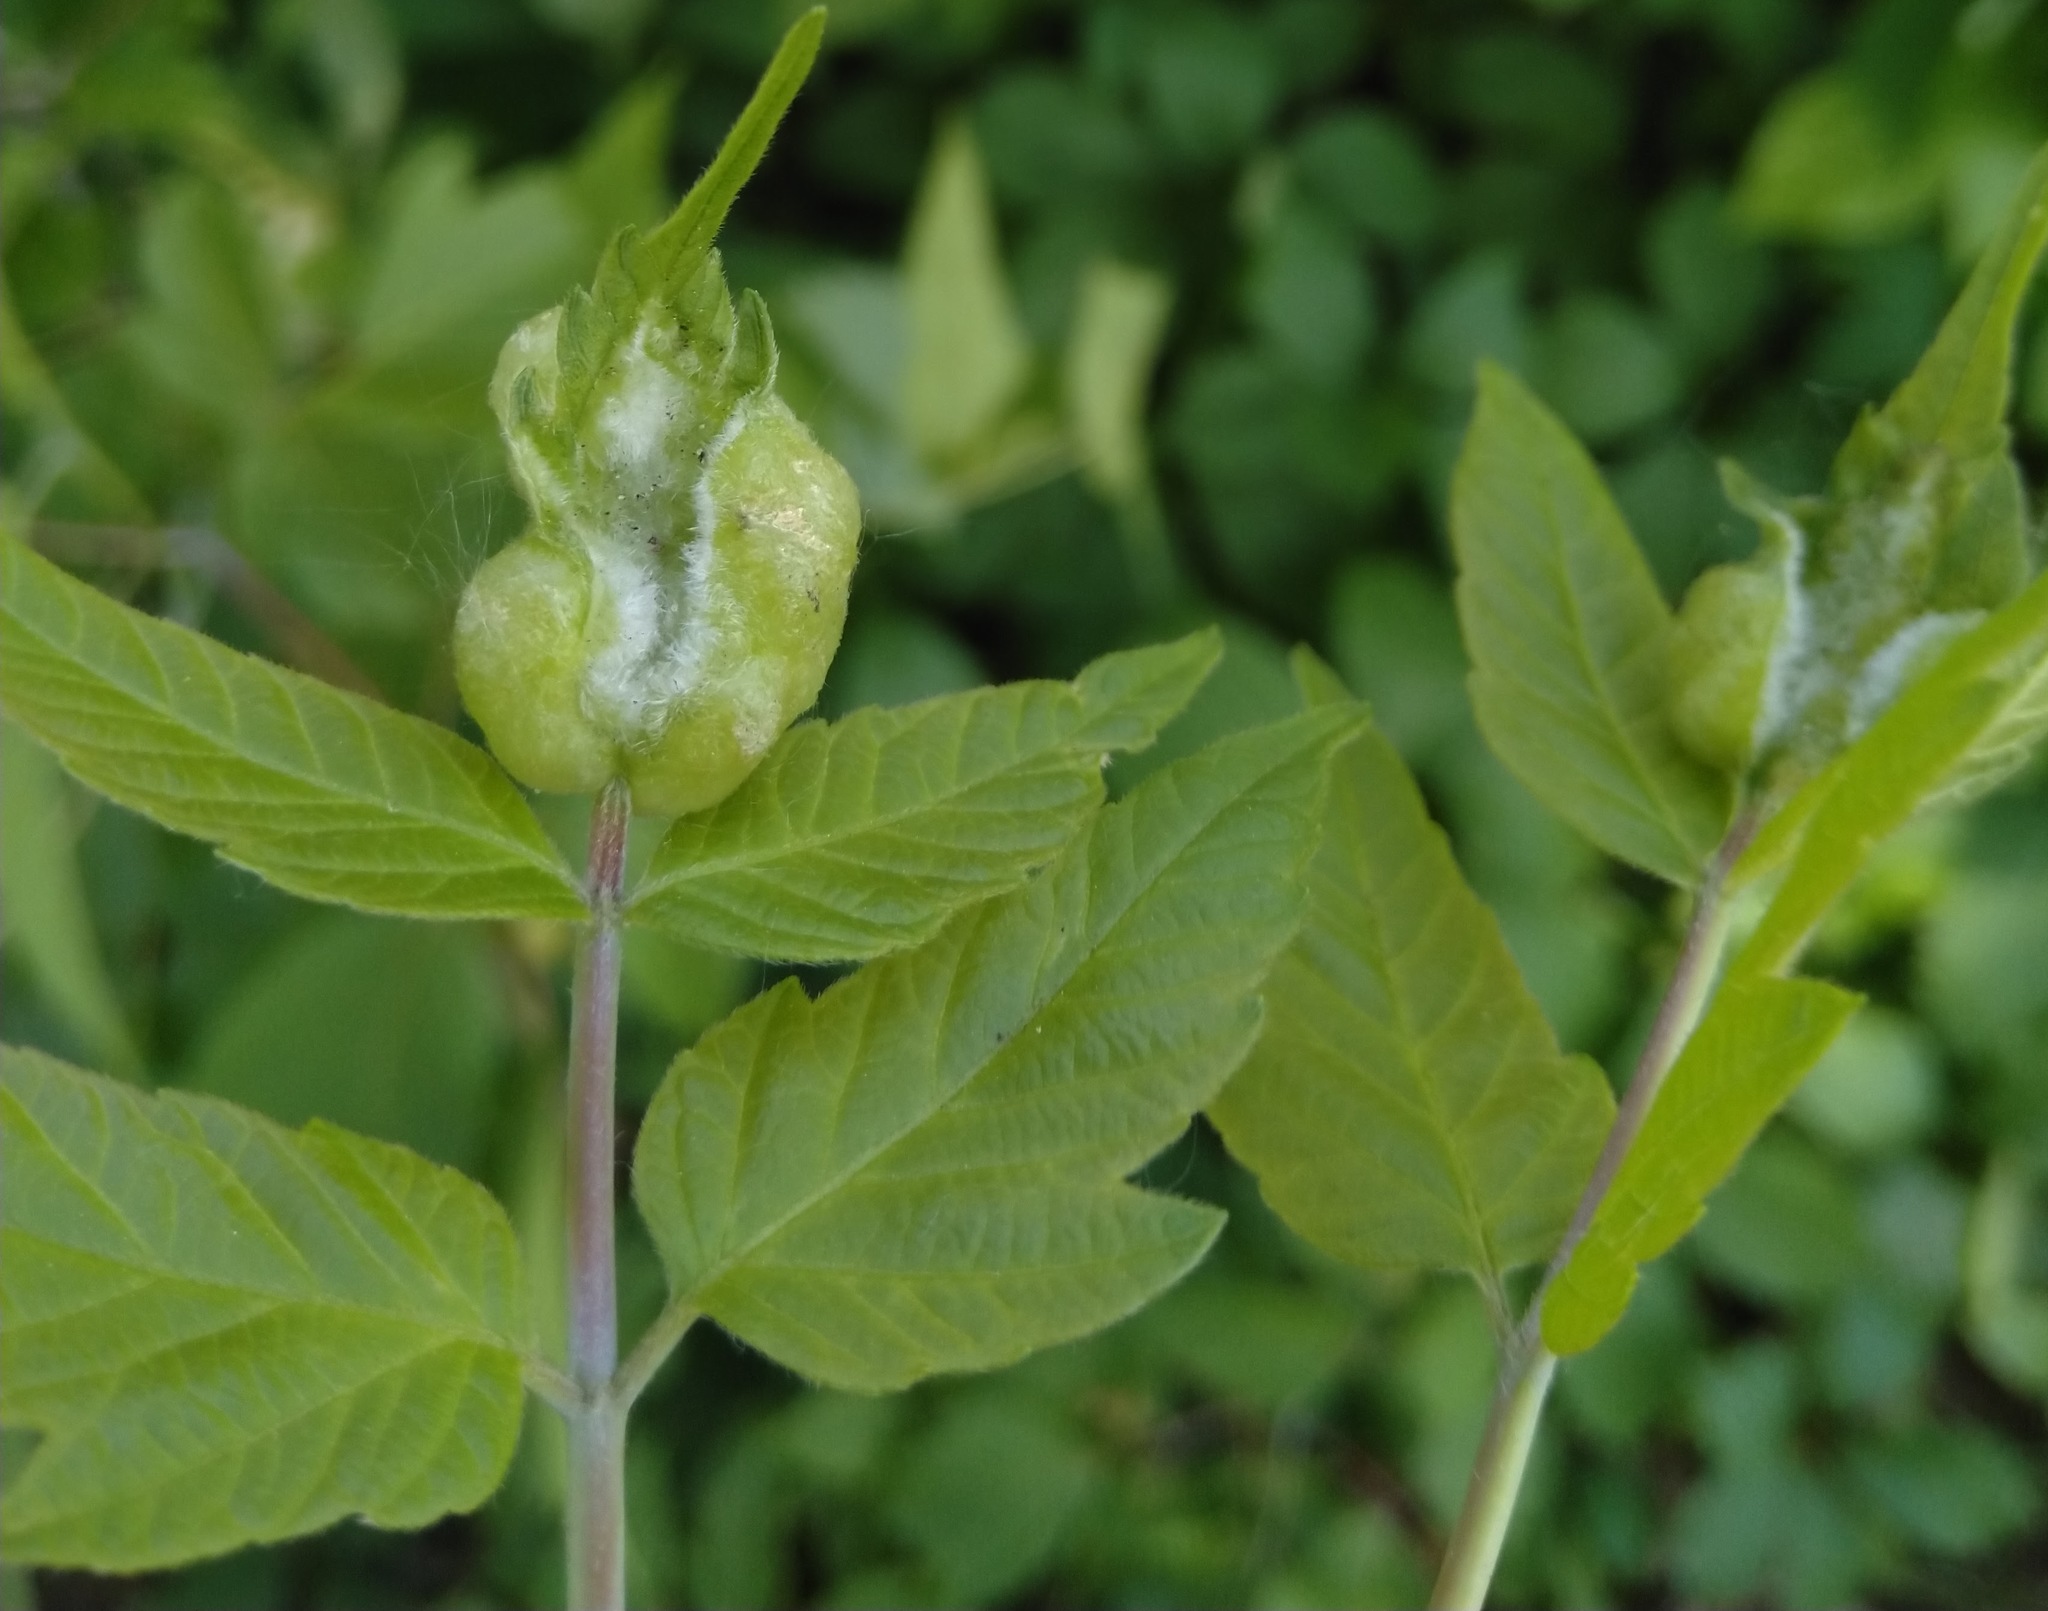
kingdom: Animalia
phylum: Arthropoda
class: Insecta
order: Diptera
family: Cecidomyiidae
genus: Contarinia
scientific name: Contarinia negundinis
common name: Boxelder budgall midge
